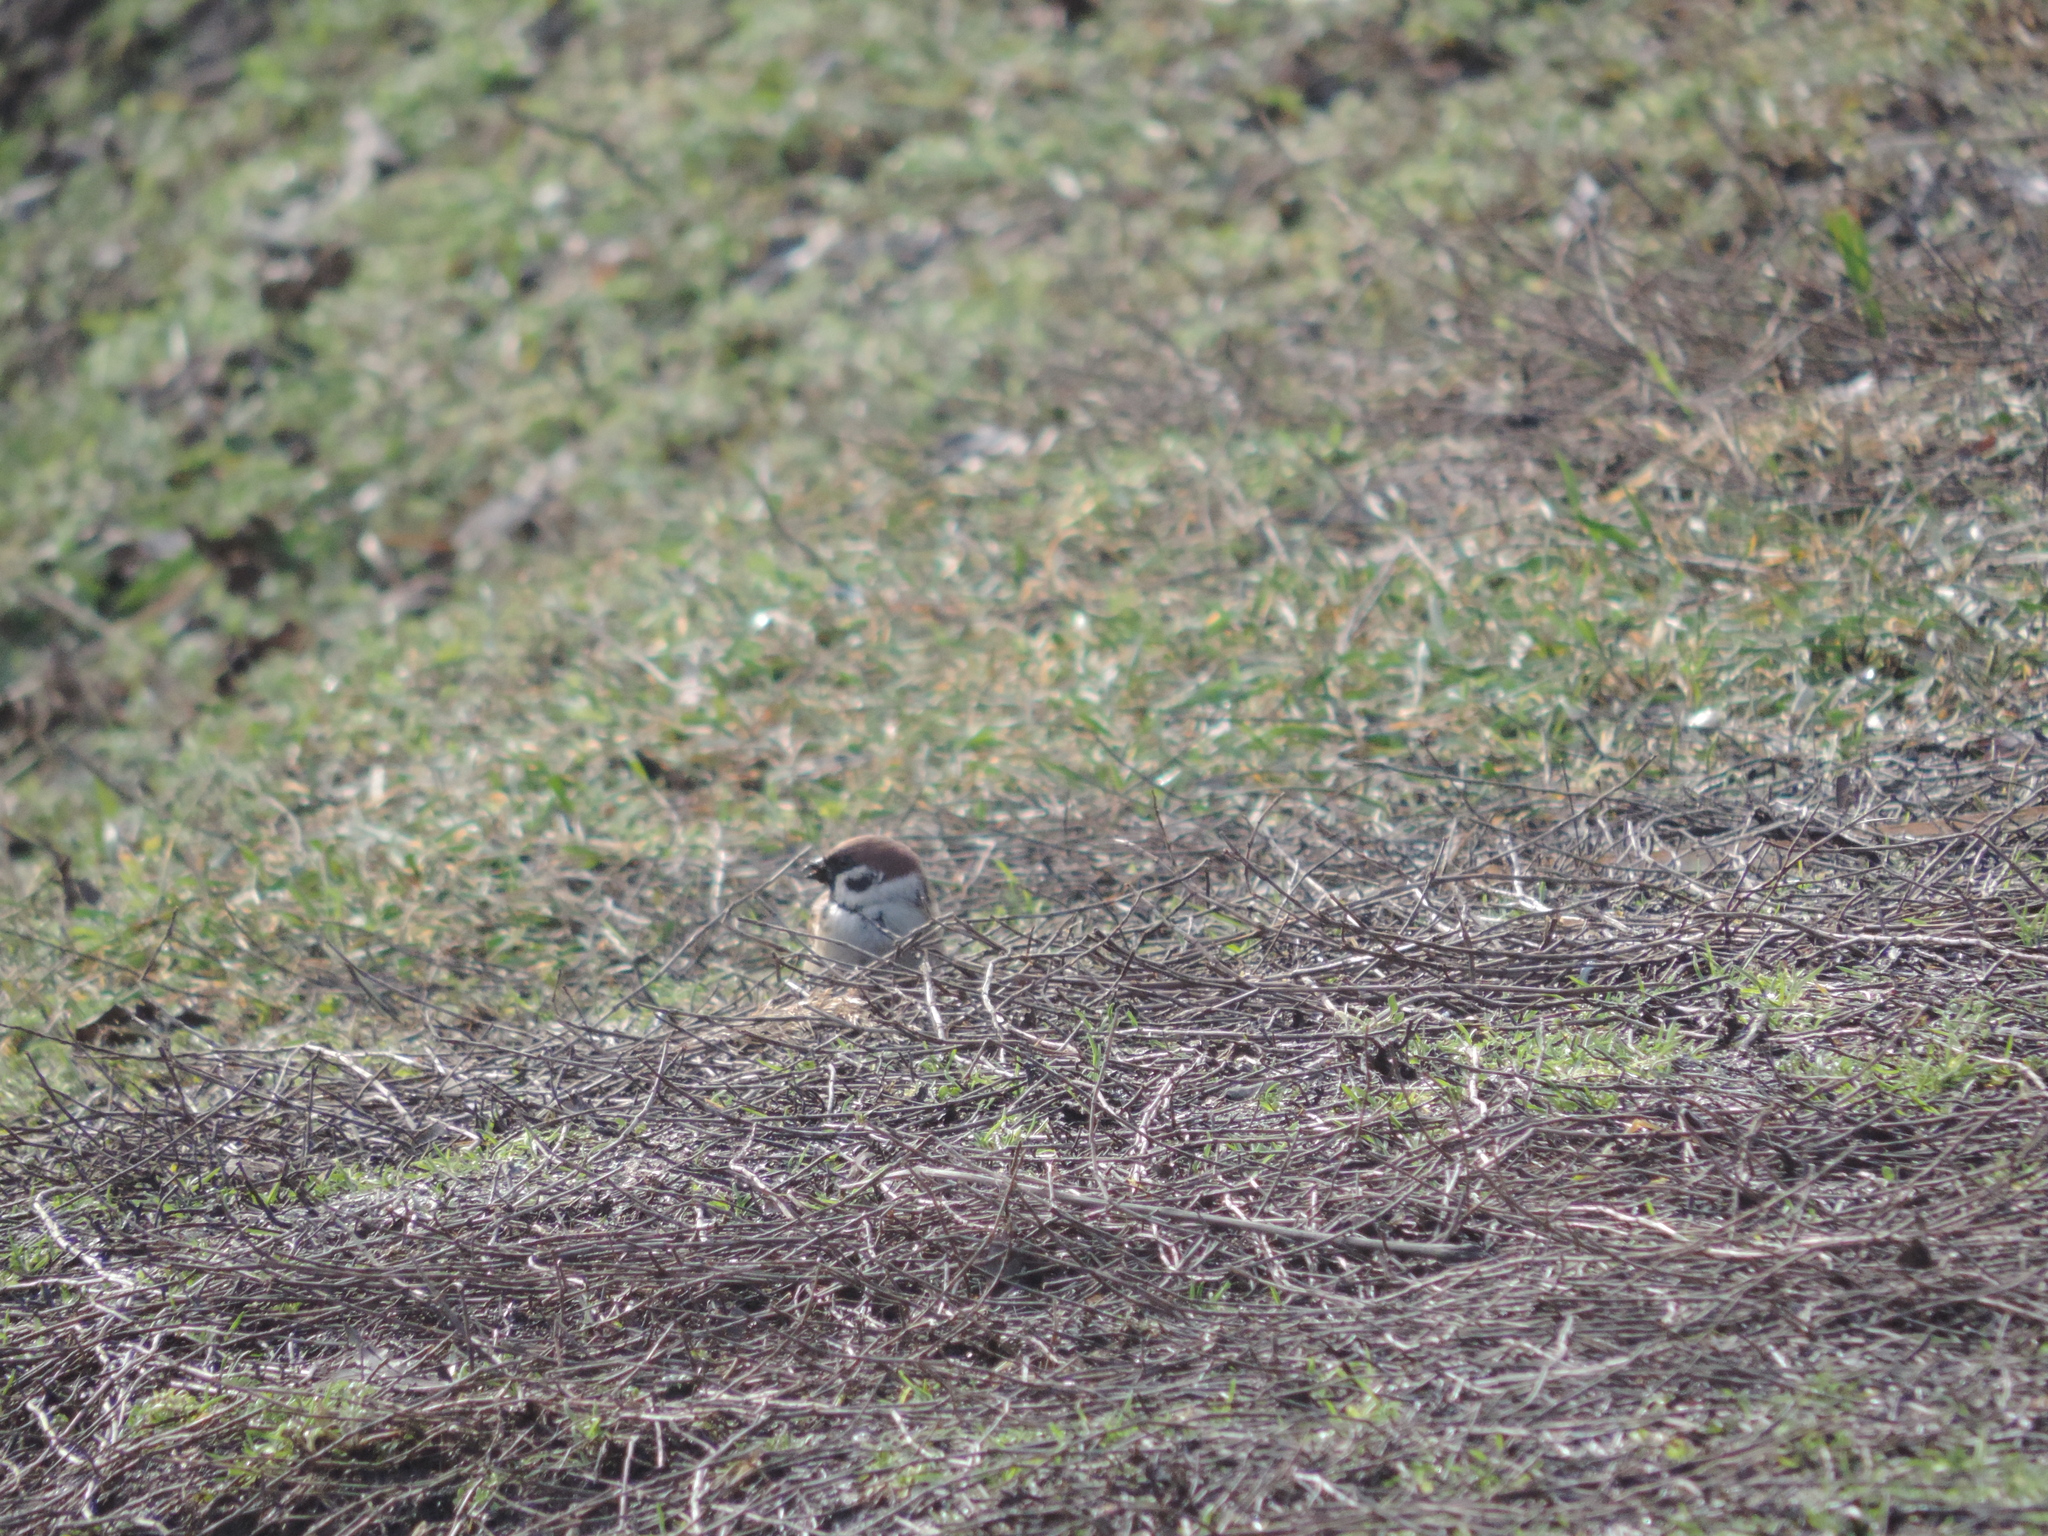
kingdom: Animalia
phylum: Chordata
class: Aves
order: Passeriformes
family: Passeridae
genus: Passer
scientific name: Passer montanus
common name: Eurasian tree sparrow
